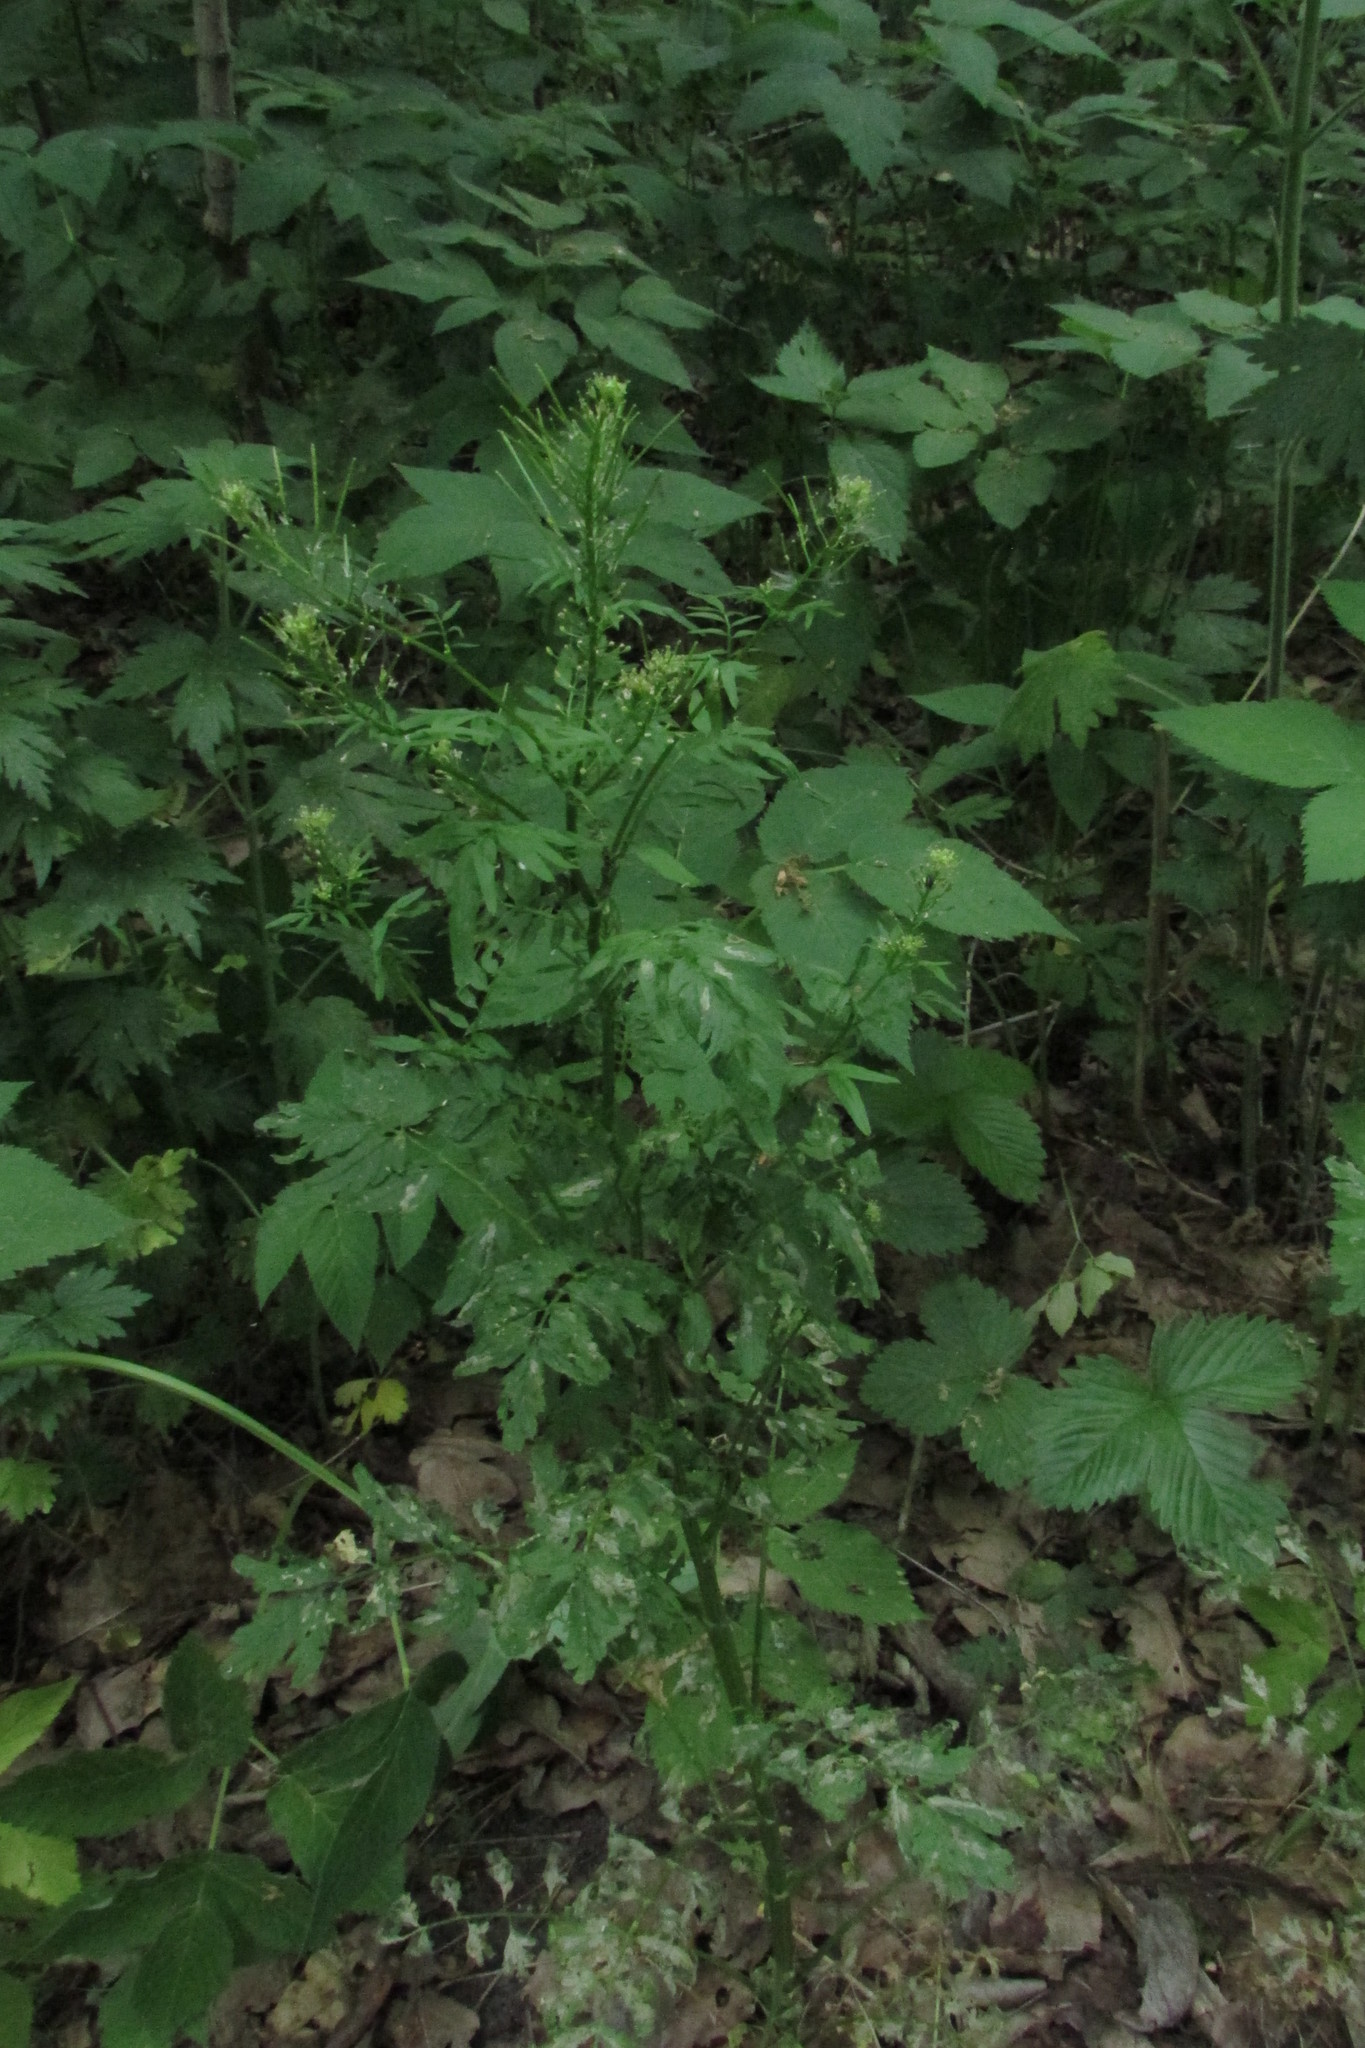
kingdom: Plantae
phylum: Tracheophyta
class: Magnoliopsida
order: Brassicales
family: Brassicaceae
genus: Cardamine
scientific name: Cardamine impatiens
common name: Narrow-leaved bitter-cress
